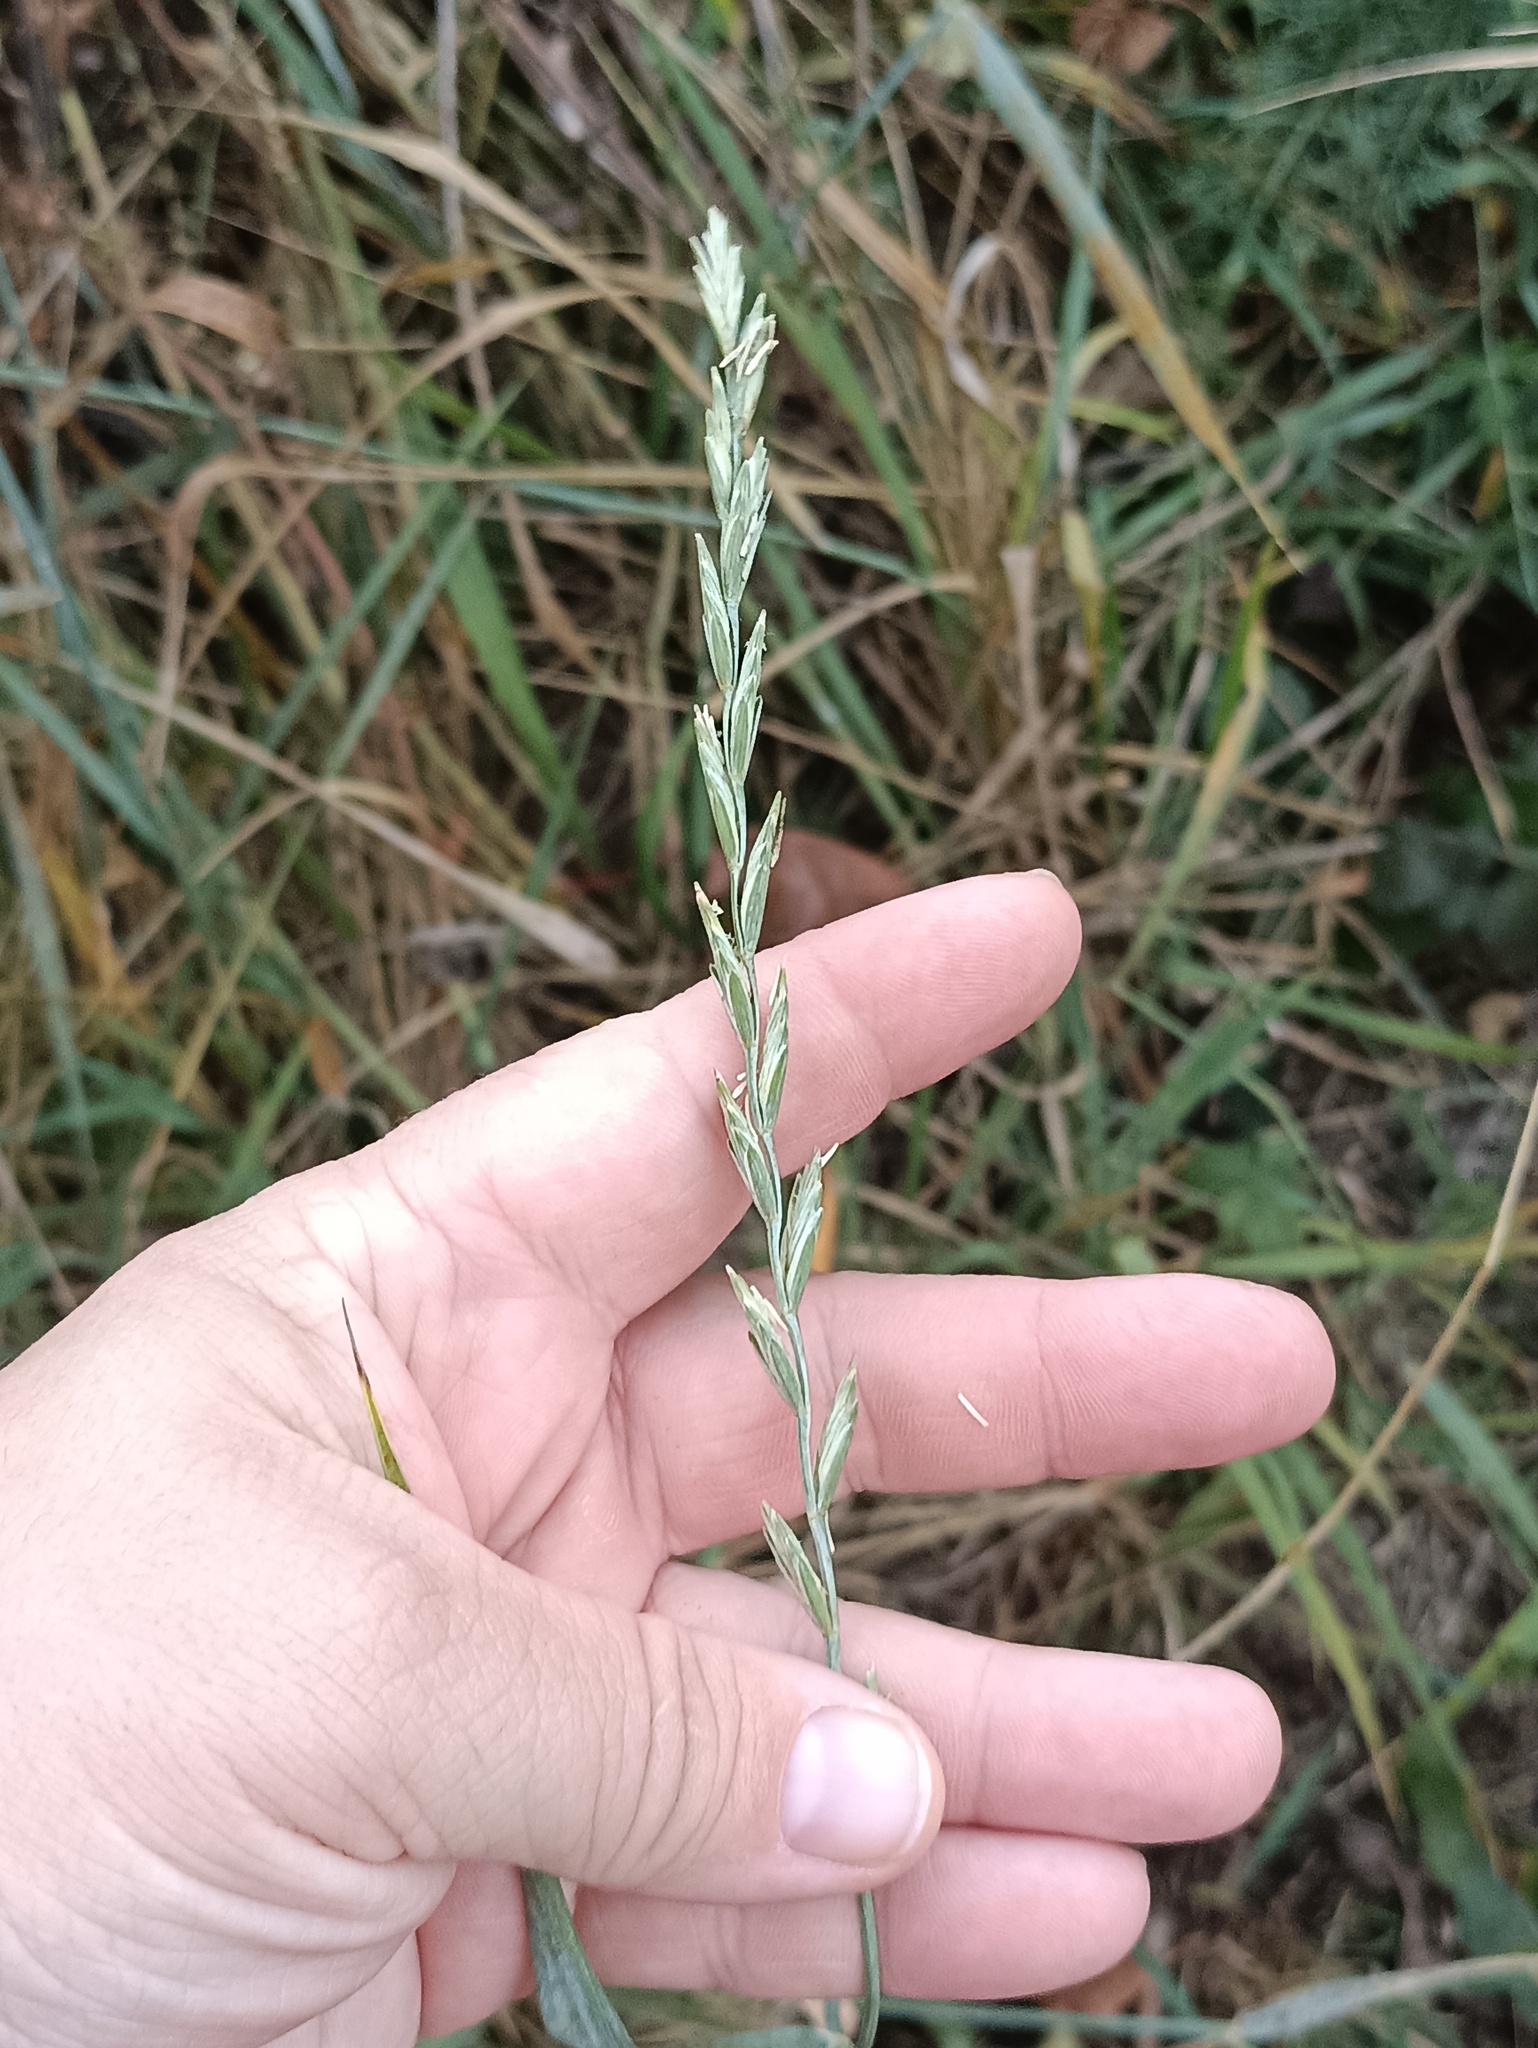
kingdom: Plantae
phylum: Tracheophyta
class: Liliopsida
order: Poales
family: Poaceae
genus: Elymus
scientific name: Elymus repens
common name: Quackgrass
